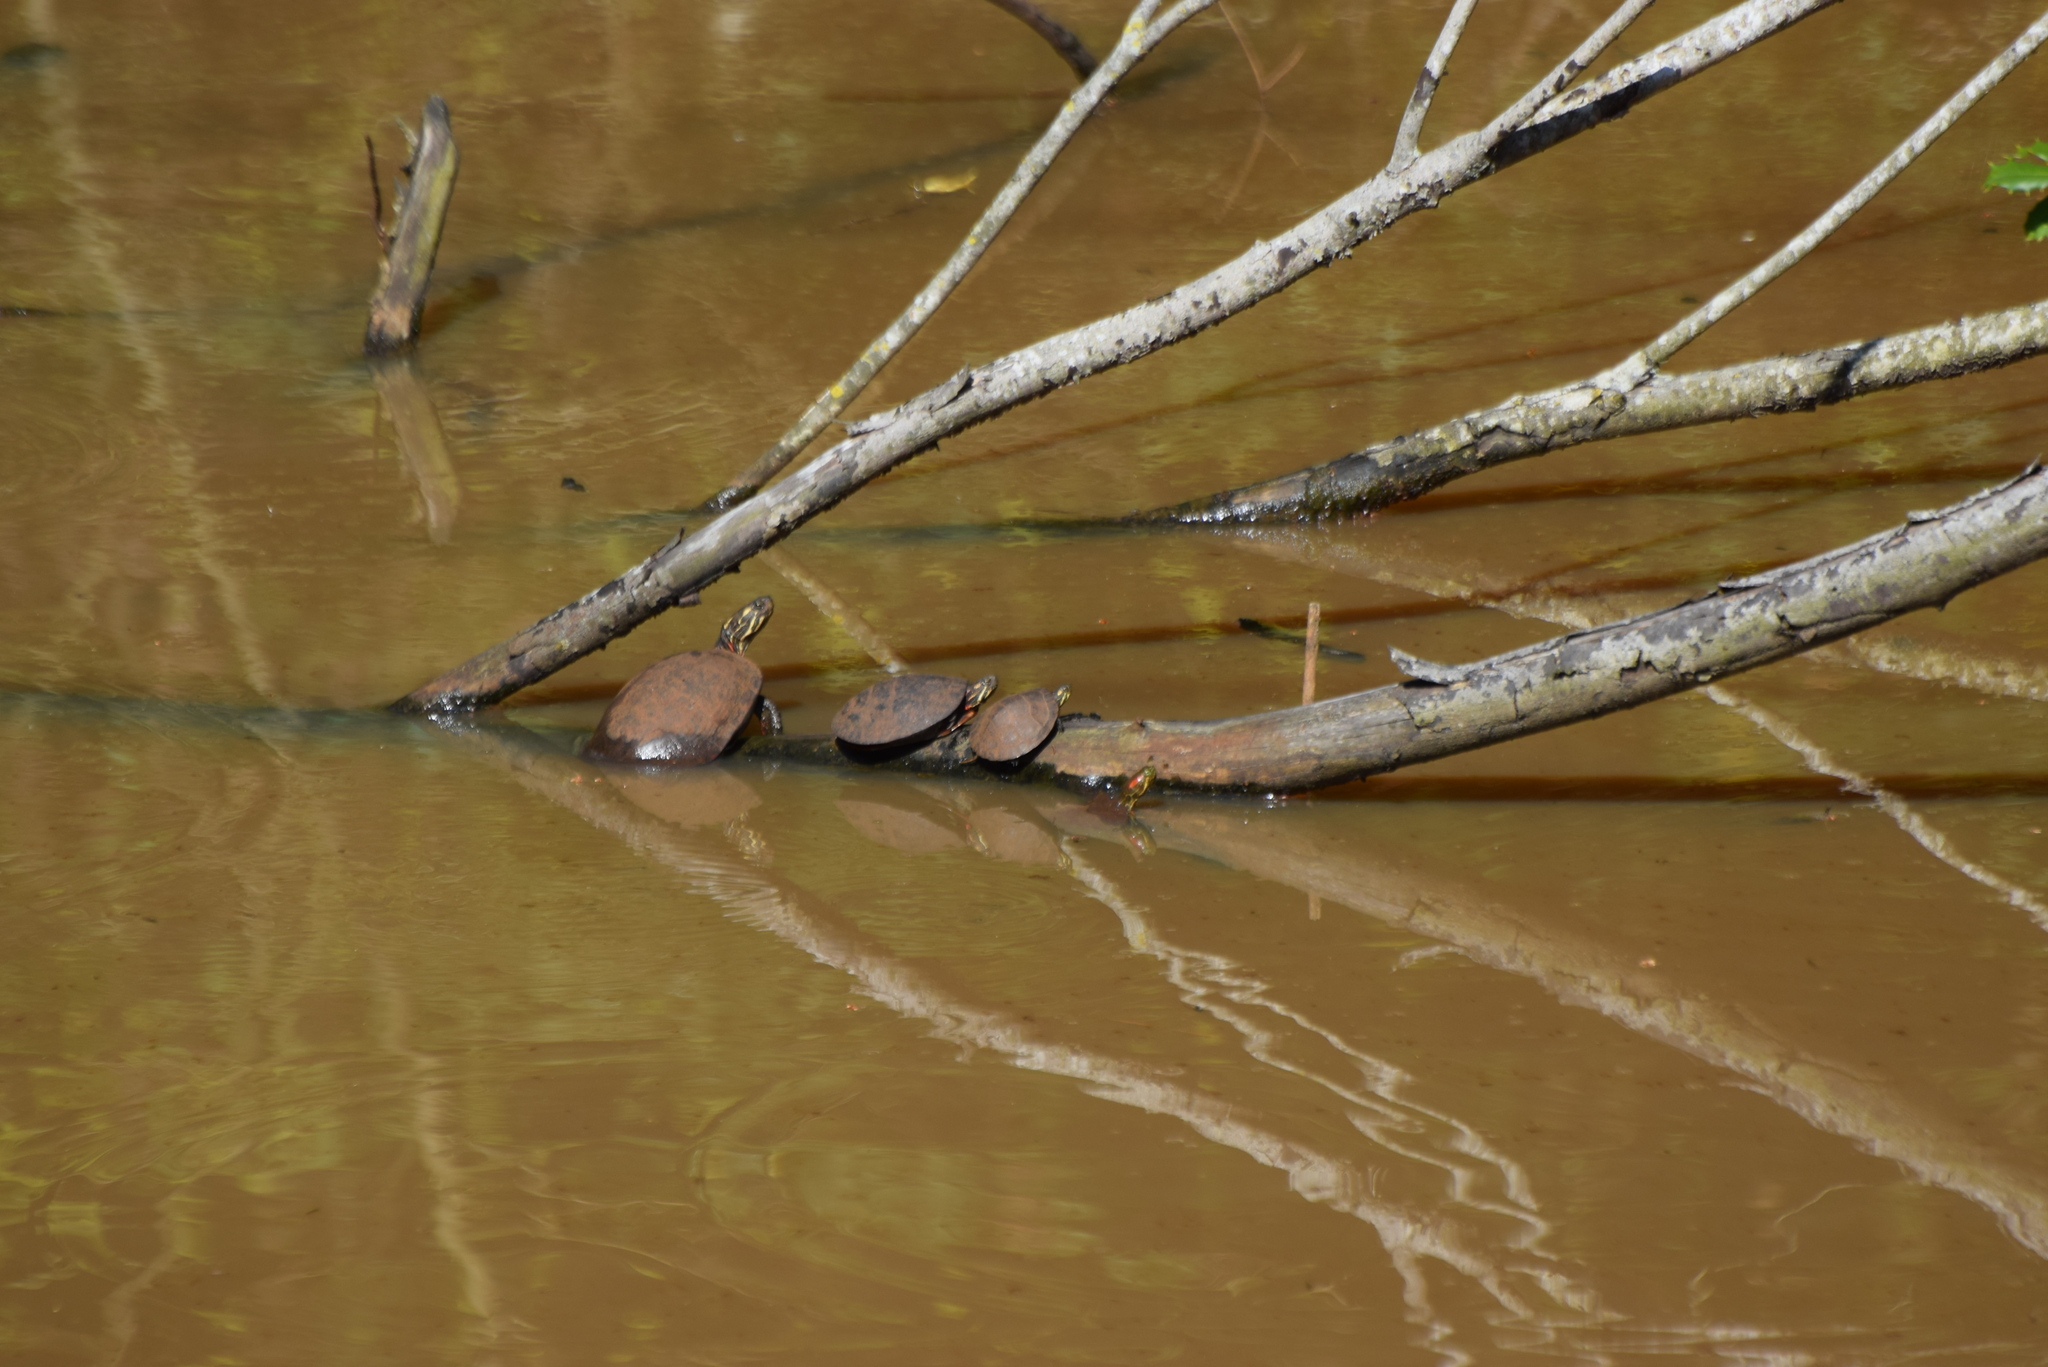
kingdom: Animalia
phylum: Chordata
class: Testudines
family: Emydidae
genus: Chrysemys
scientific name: Chrysemys picta
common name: Painted turtle
